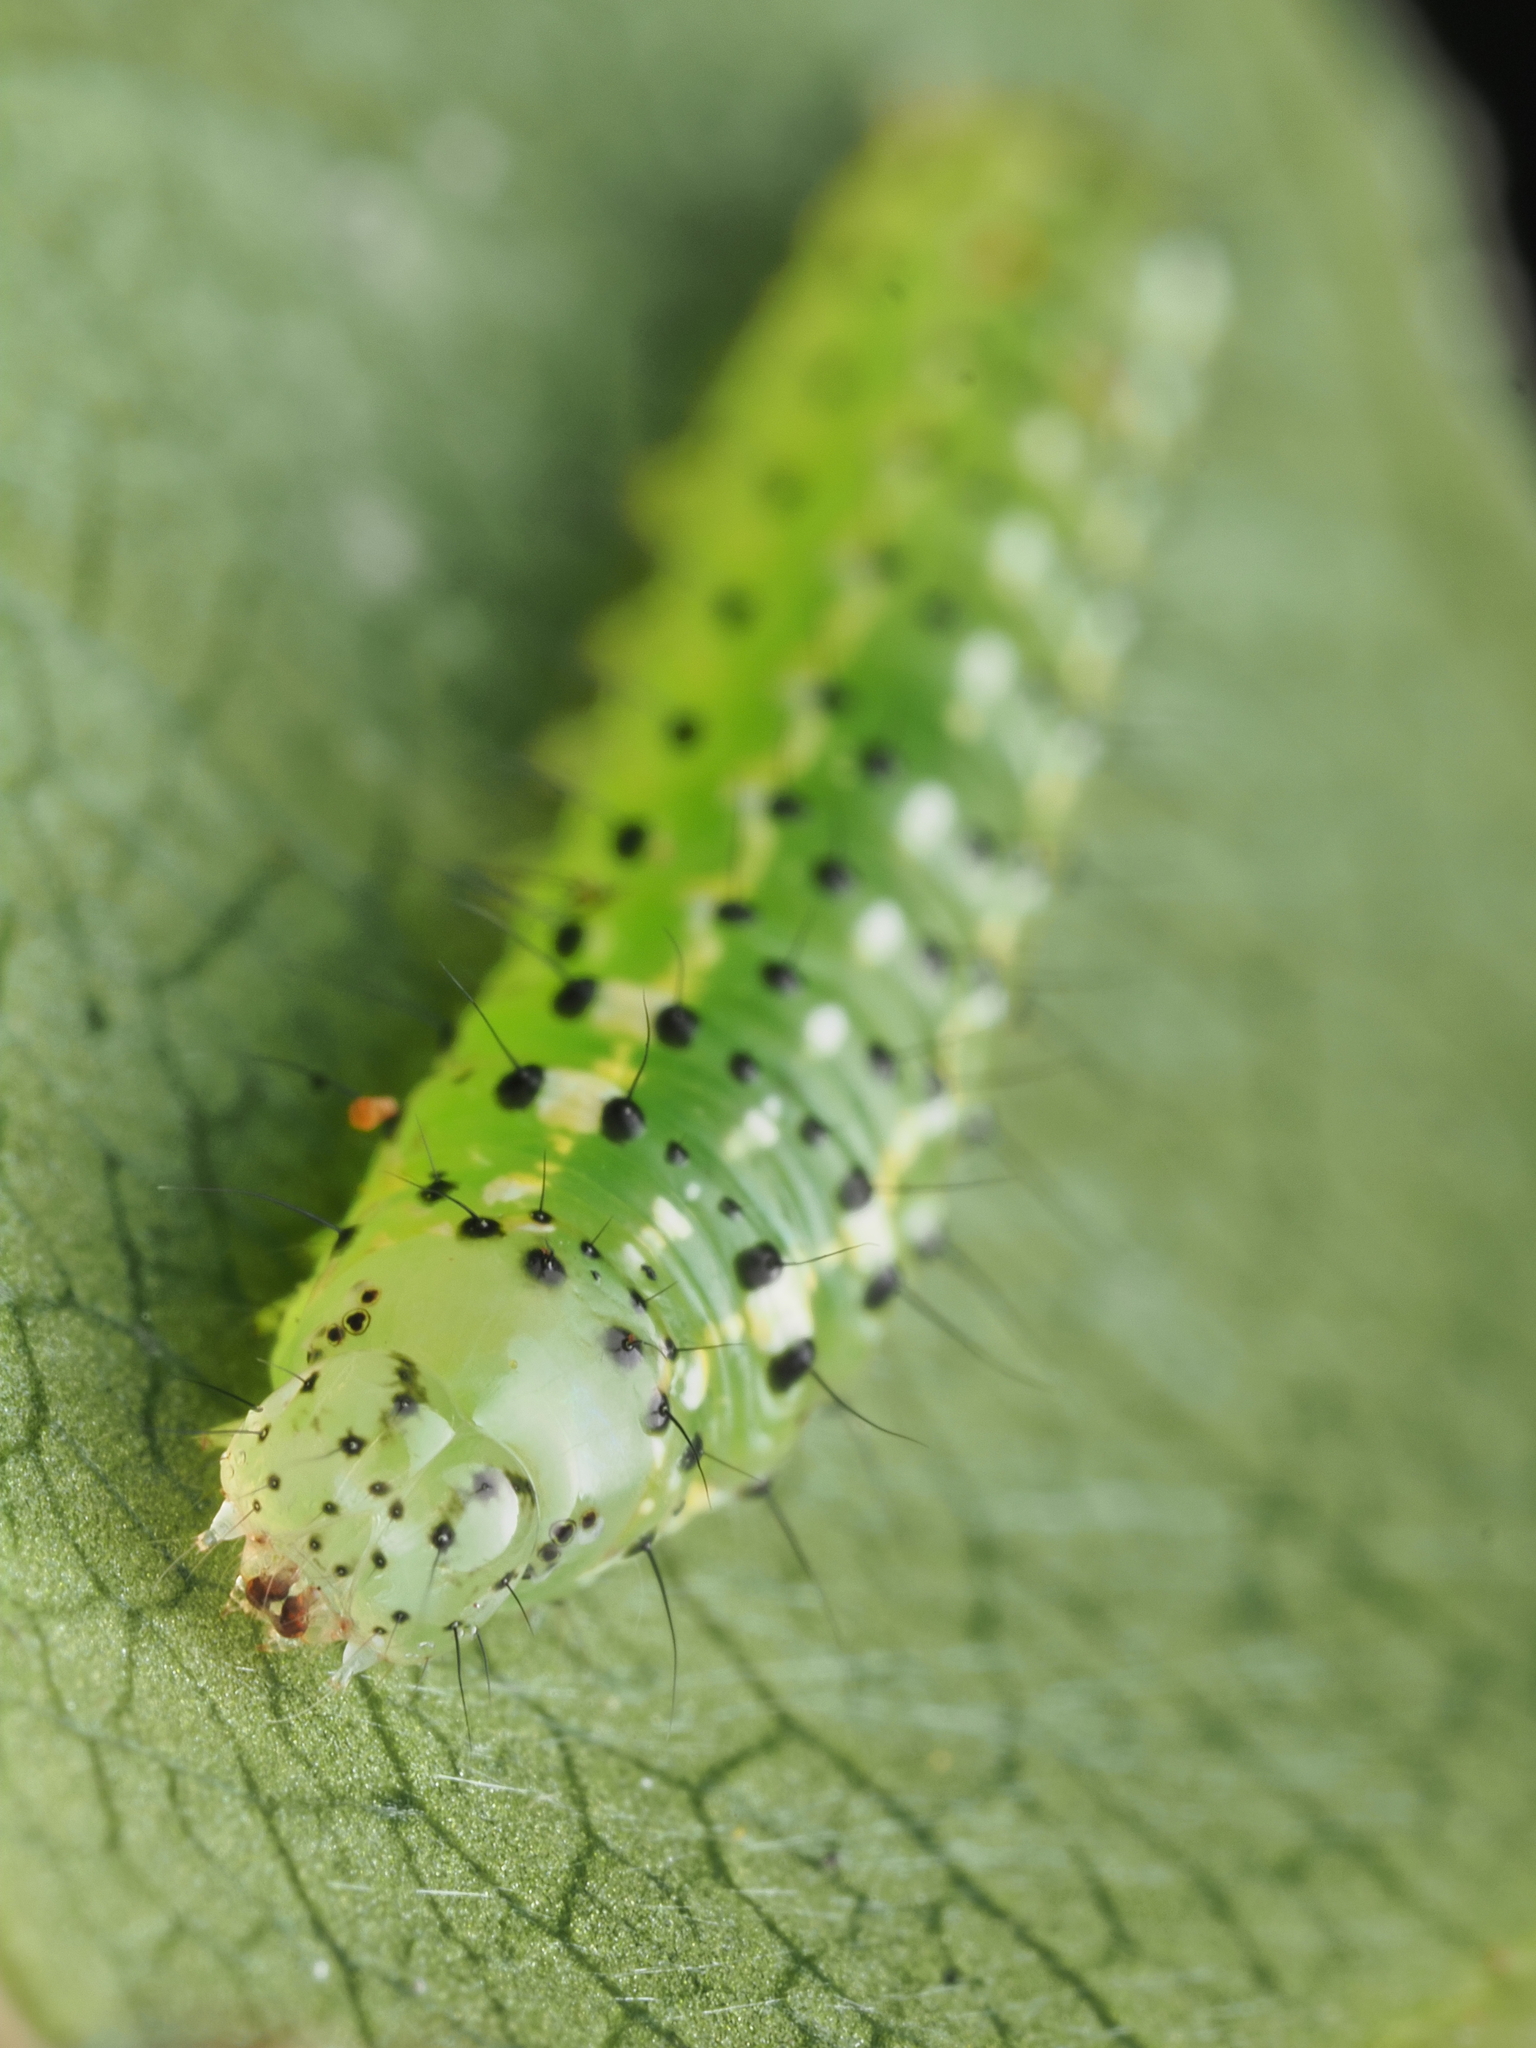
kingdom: Animalia
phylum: Arthropoda
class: Insecta
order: Lepidoptera
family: Noctuidae
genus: Feredayia
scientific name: Feredayia grammosa
